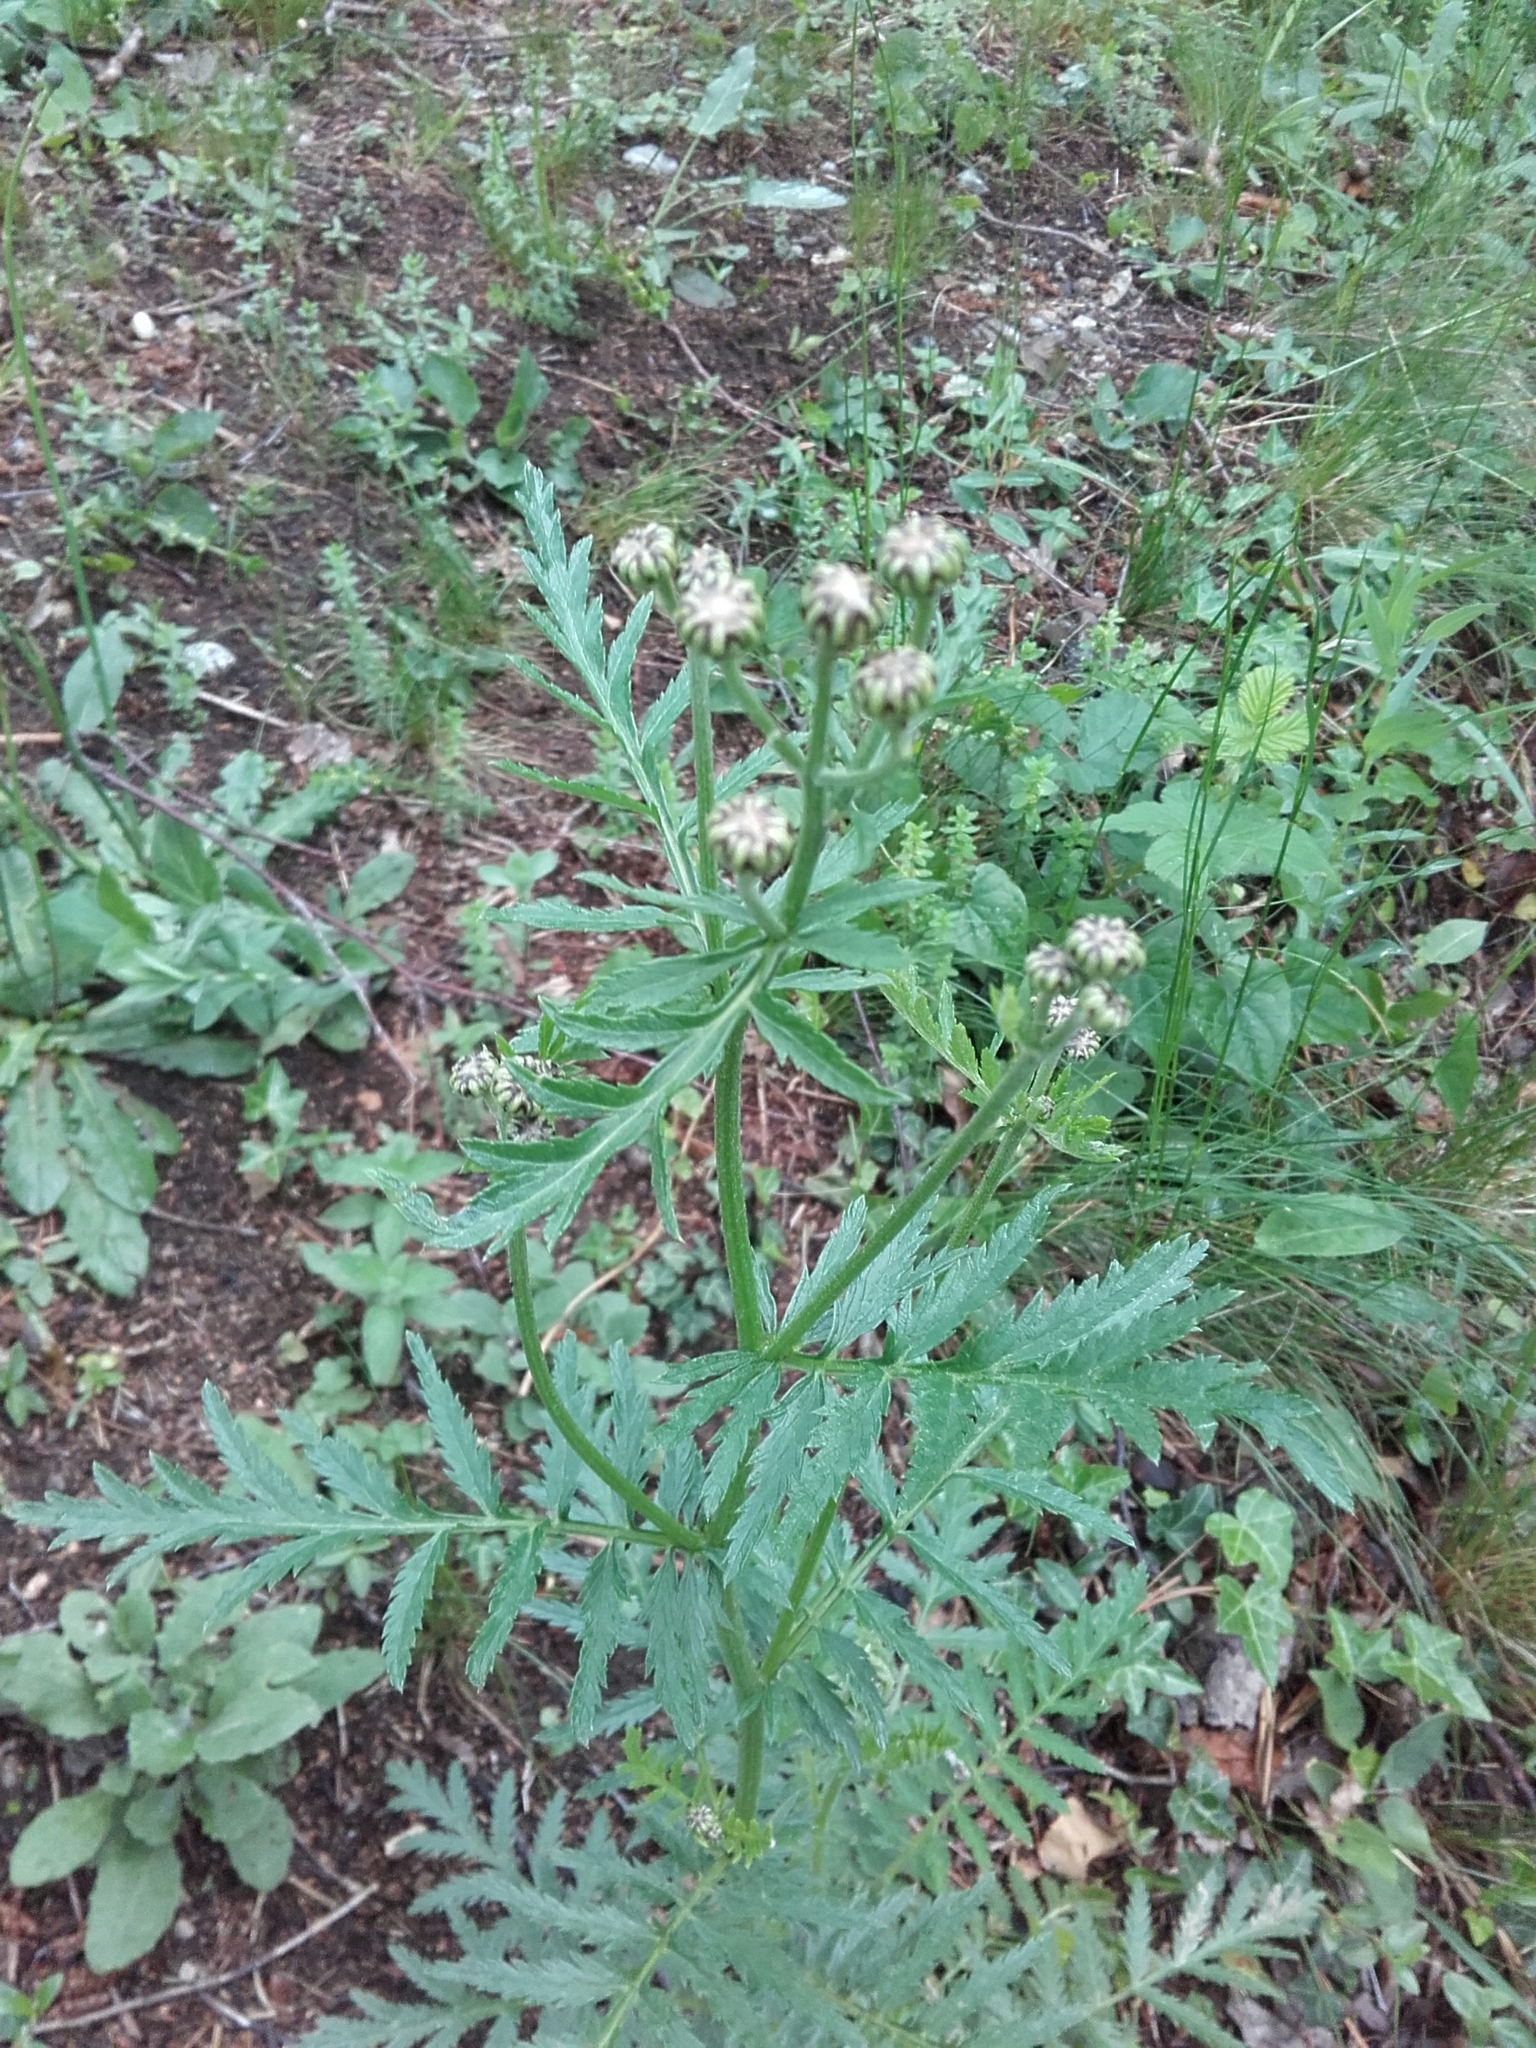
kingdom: Plantae
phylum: Tracheophyta
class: Magnoliopsida
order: Asterales
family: Asteraceae
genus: Tanacetum
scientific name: Tanacetum corymbosum
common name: Scentless feverfew
